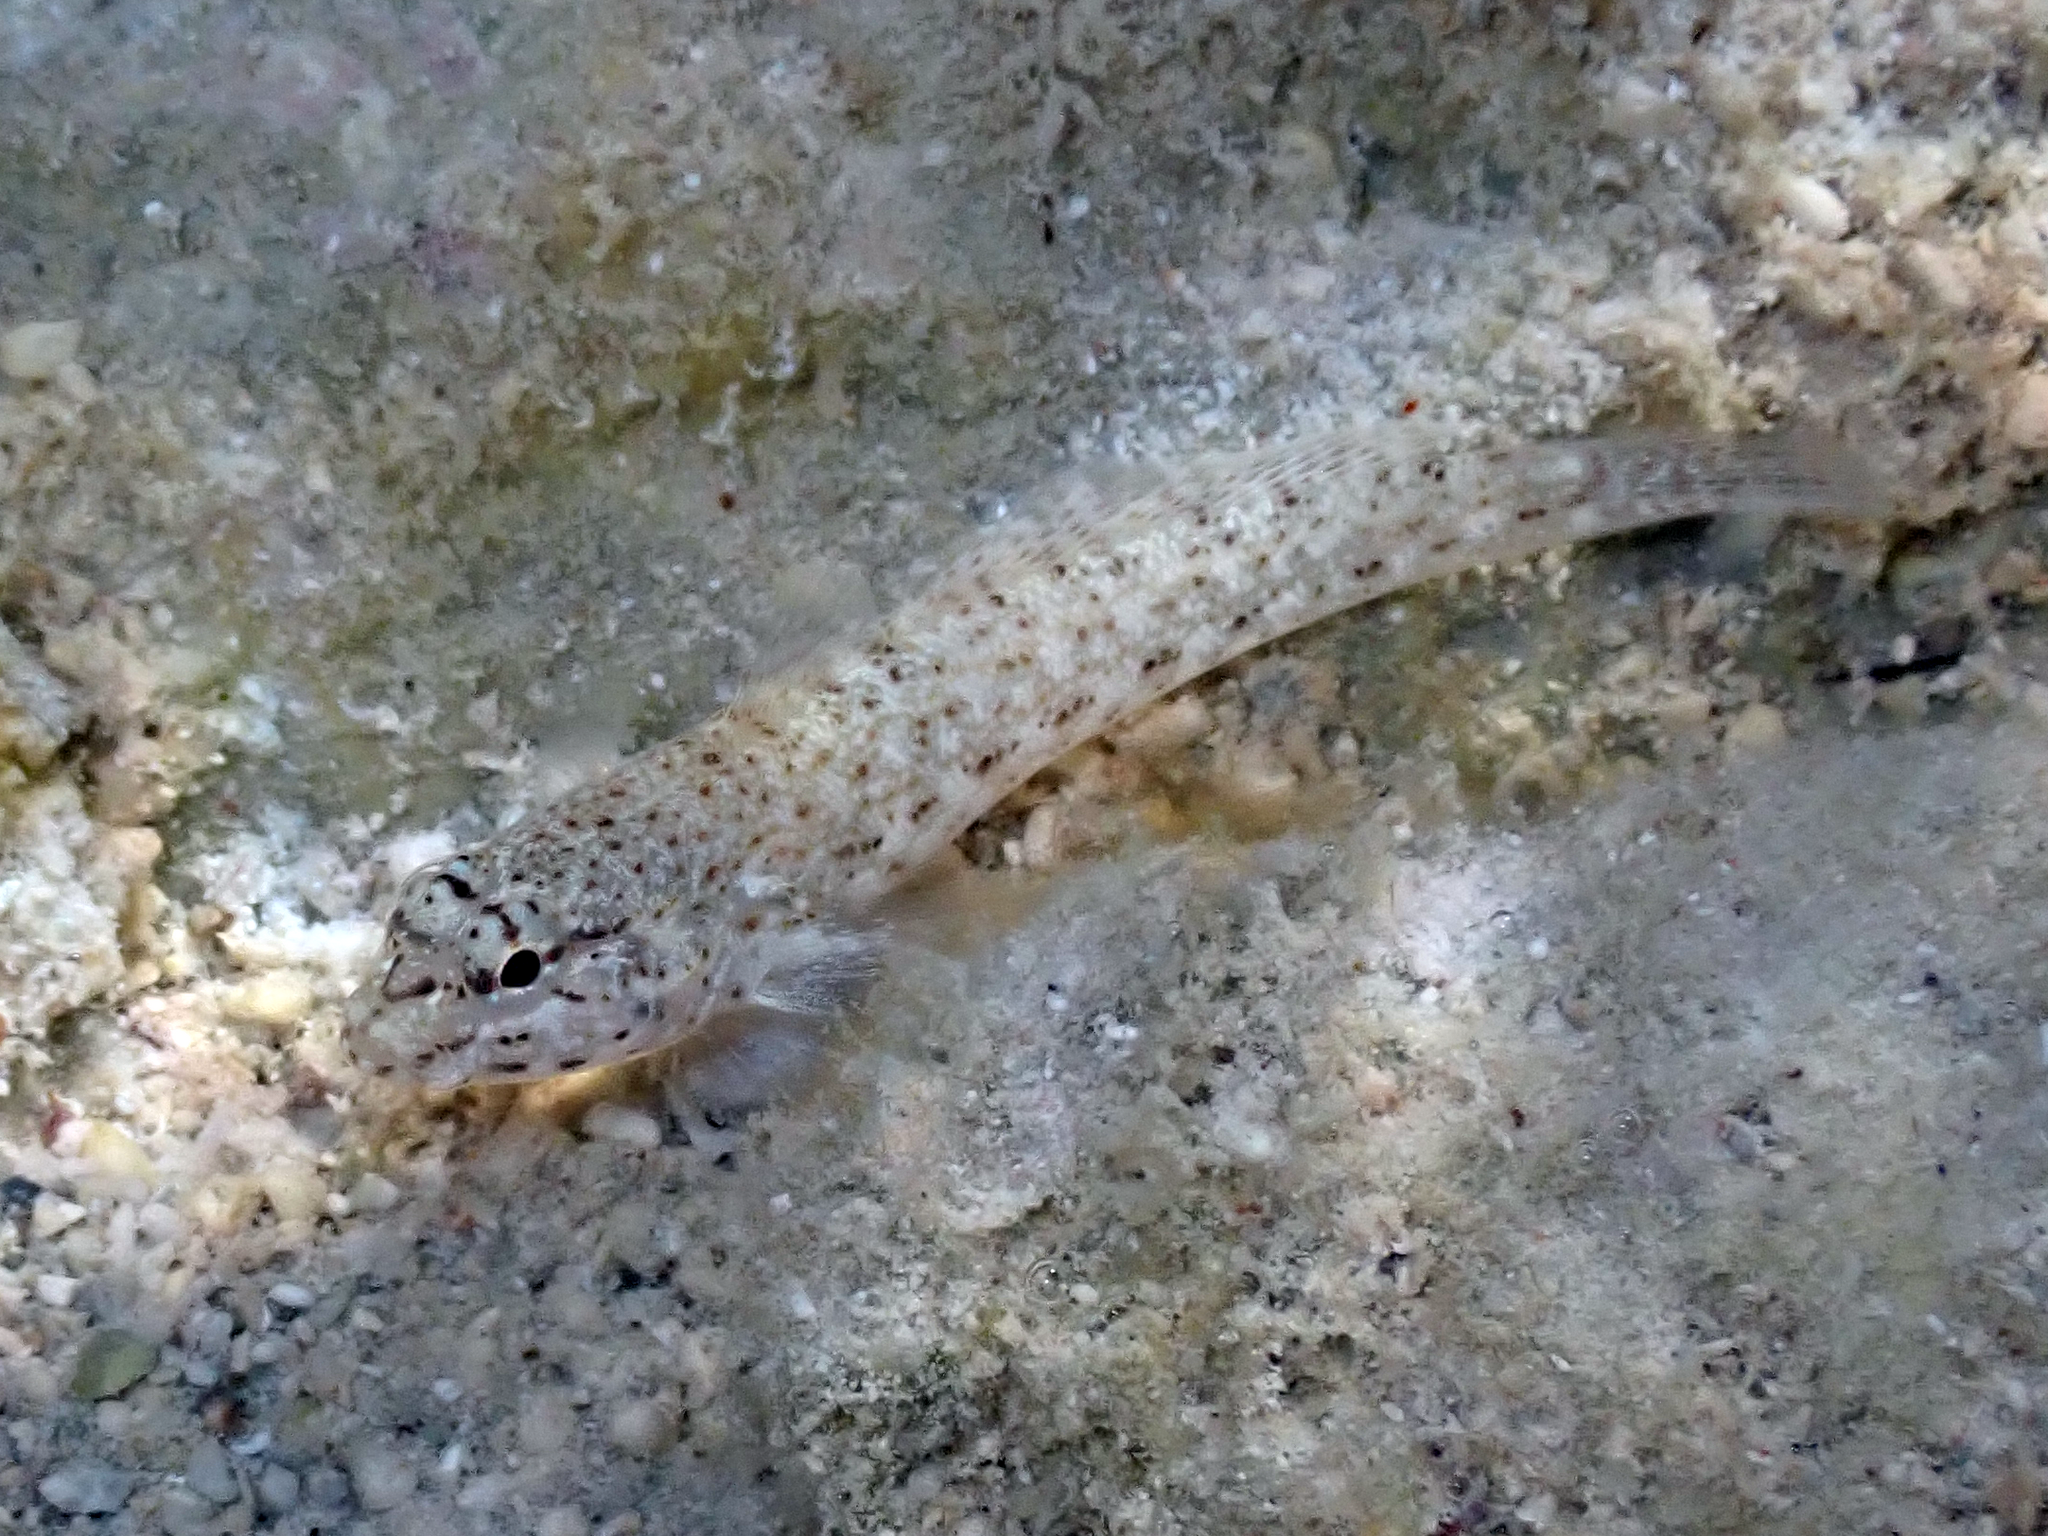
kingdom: Animalia
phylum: Chordata
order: Perciformes
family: Gobiidae
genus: Gobius
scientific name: Gobius incognitus
